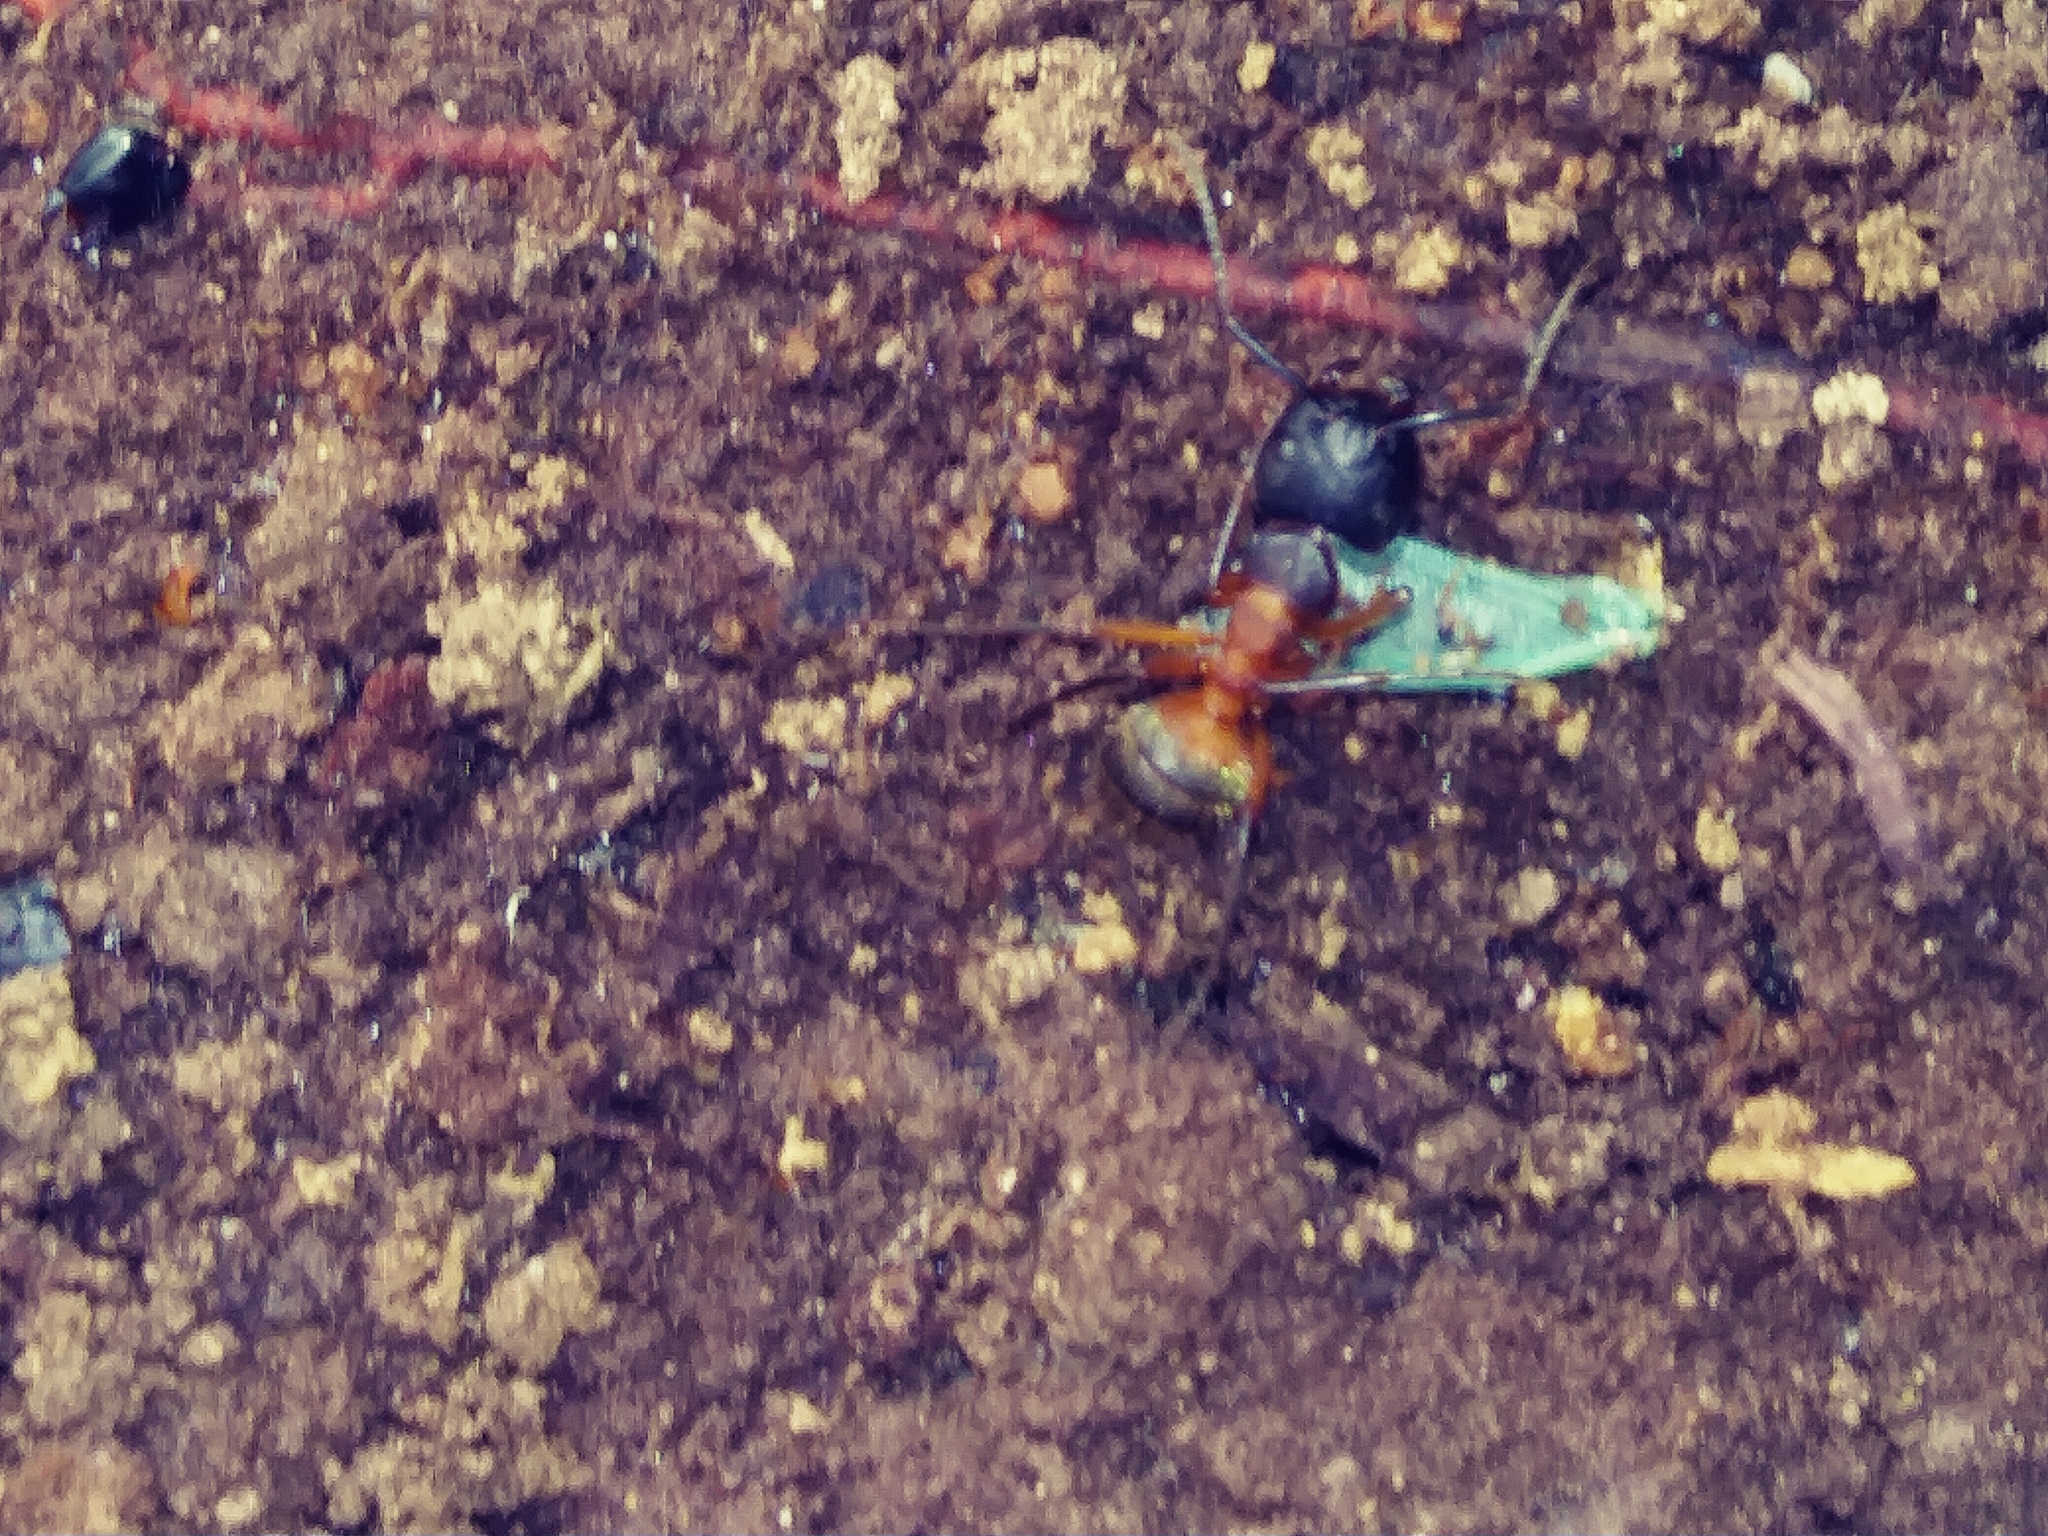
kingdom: Animalia
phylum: Arthropoda
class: Insecta
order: Hymenoptera
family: Formicidae
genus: Camponotus
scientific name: Camponotus chromaiodes
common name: Red carpenter ant
